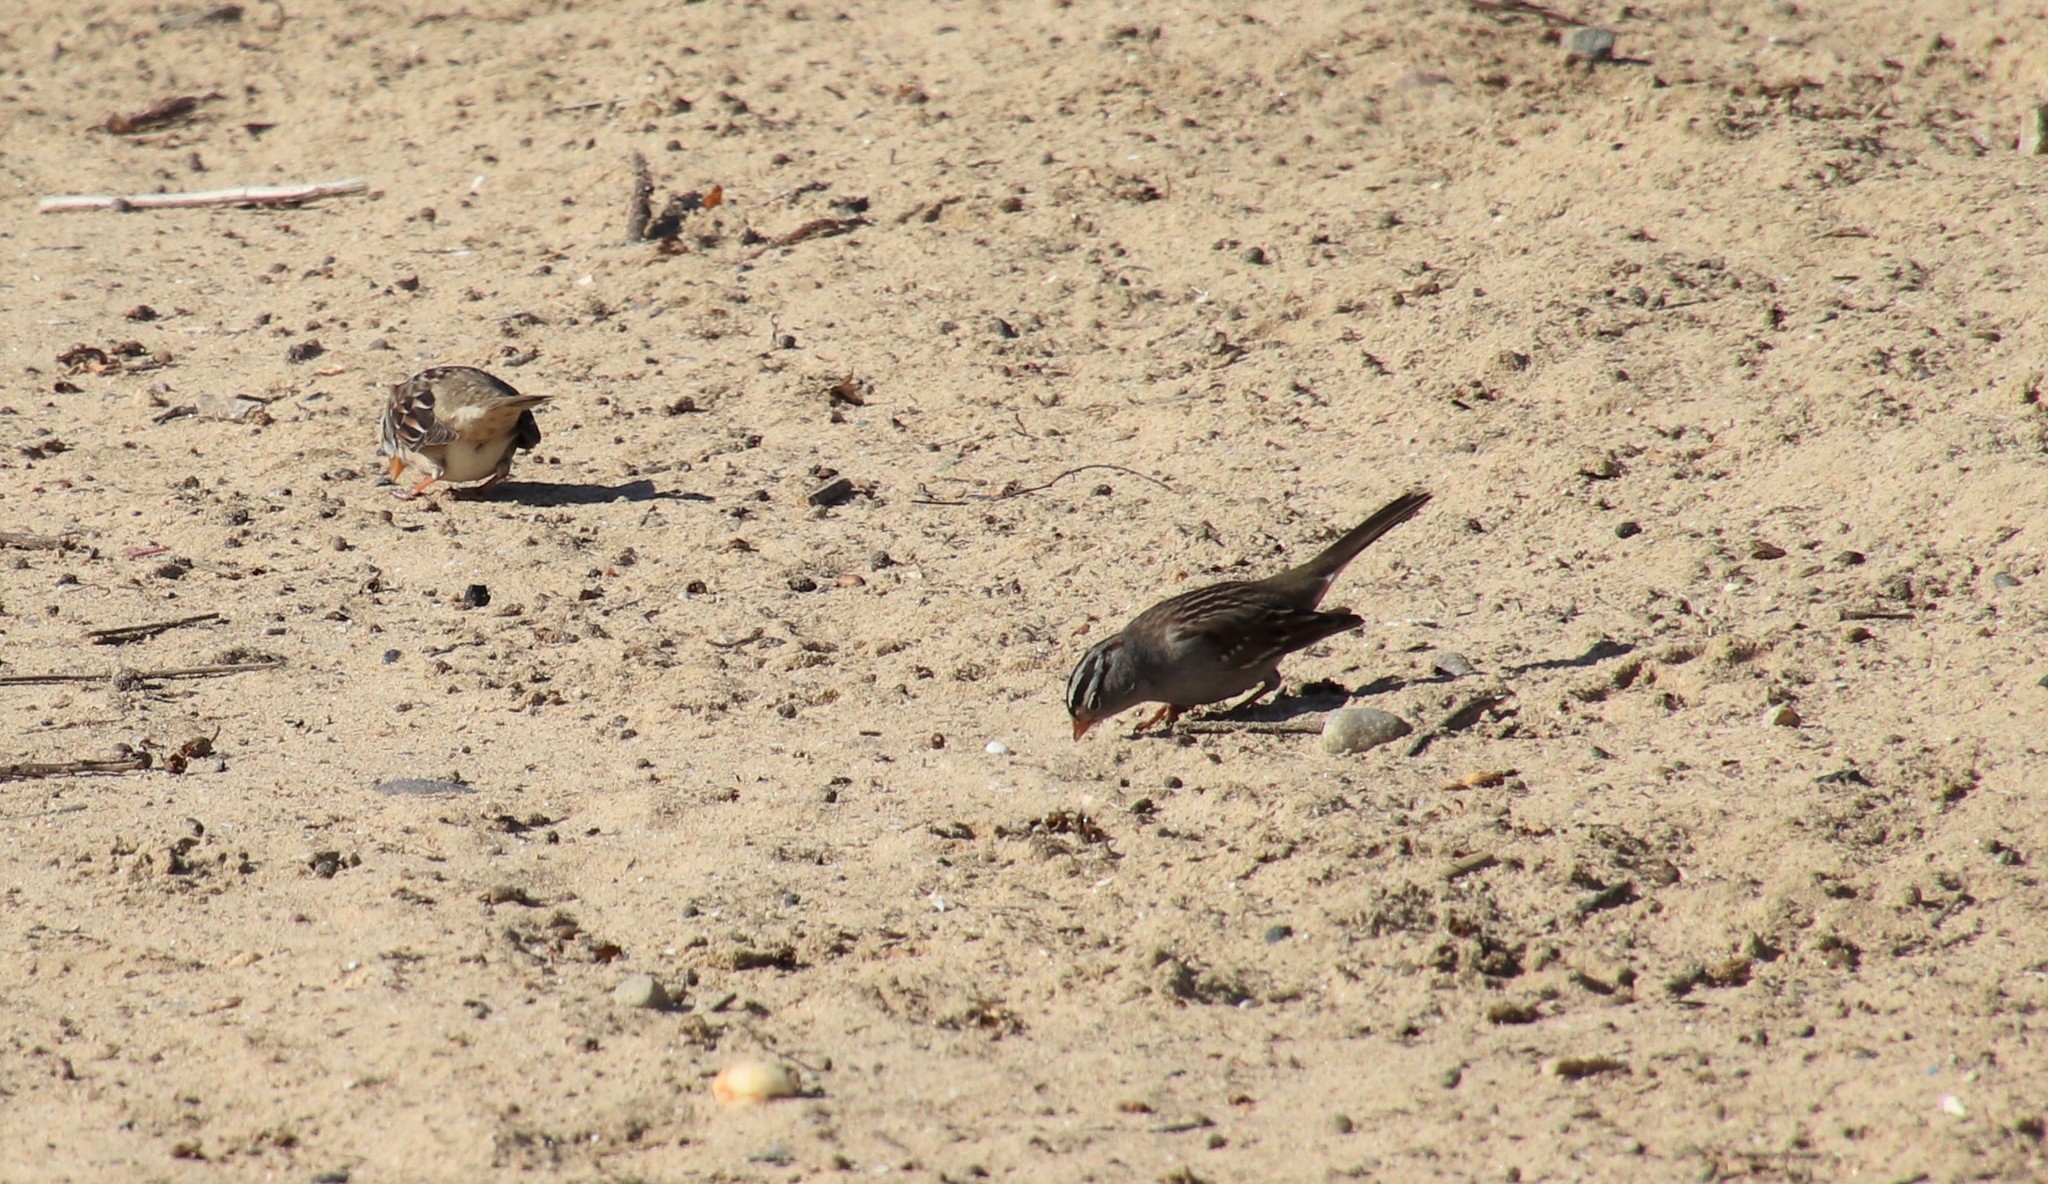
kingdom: Animalia
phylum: Chordata
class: Aves
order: Passeriformes
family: Passerellidae
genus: Zonotrichia
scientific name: Zonotrichia leucophrys
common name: White-crowned sparrow
